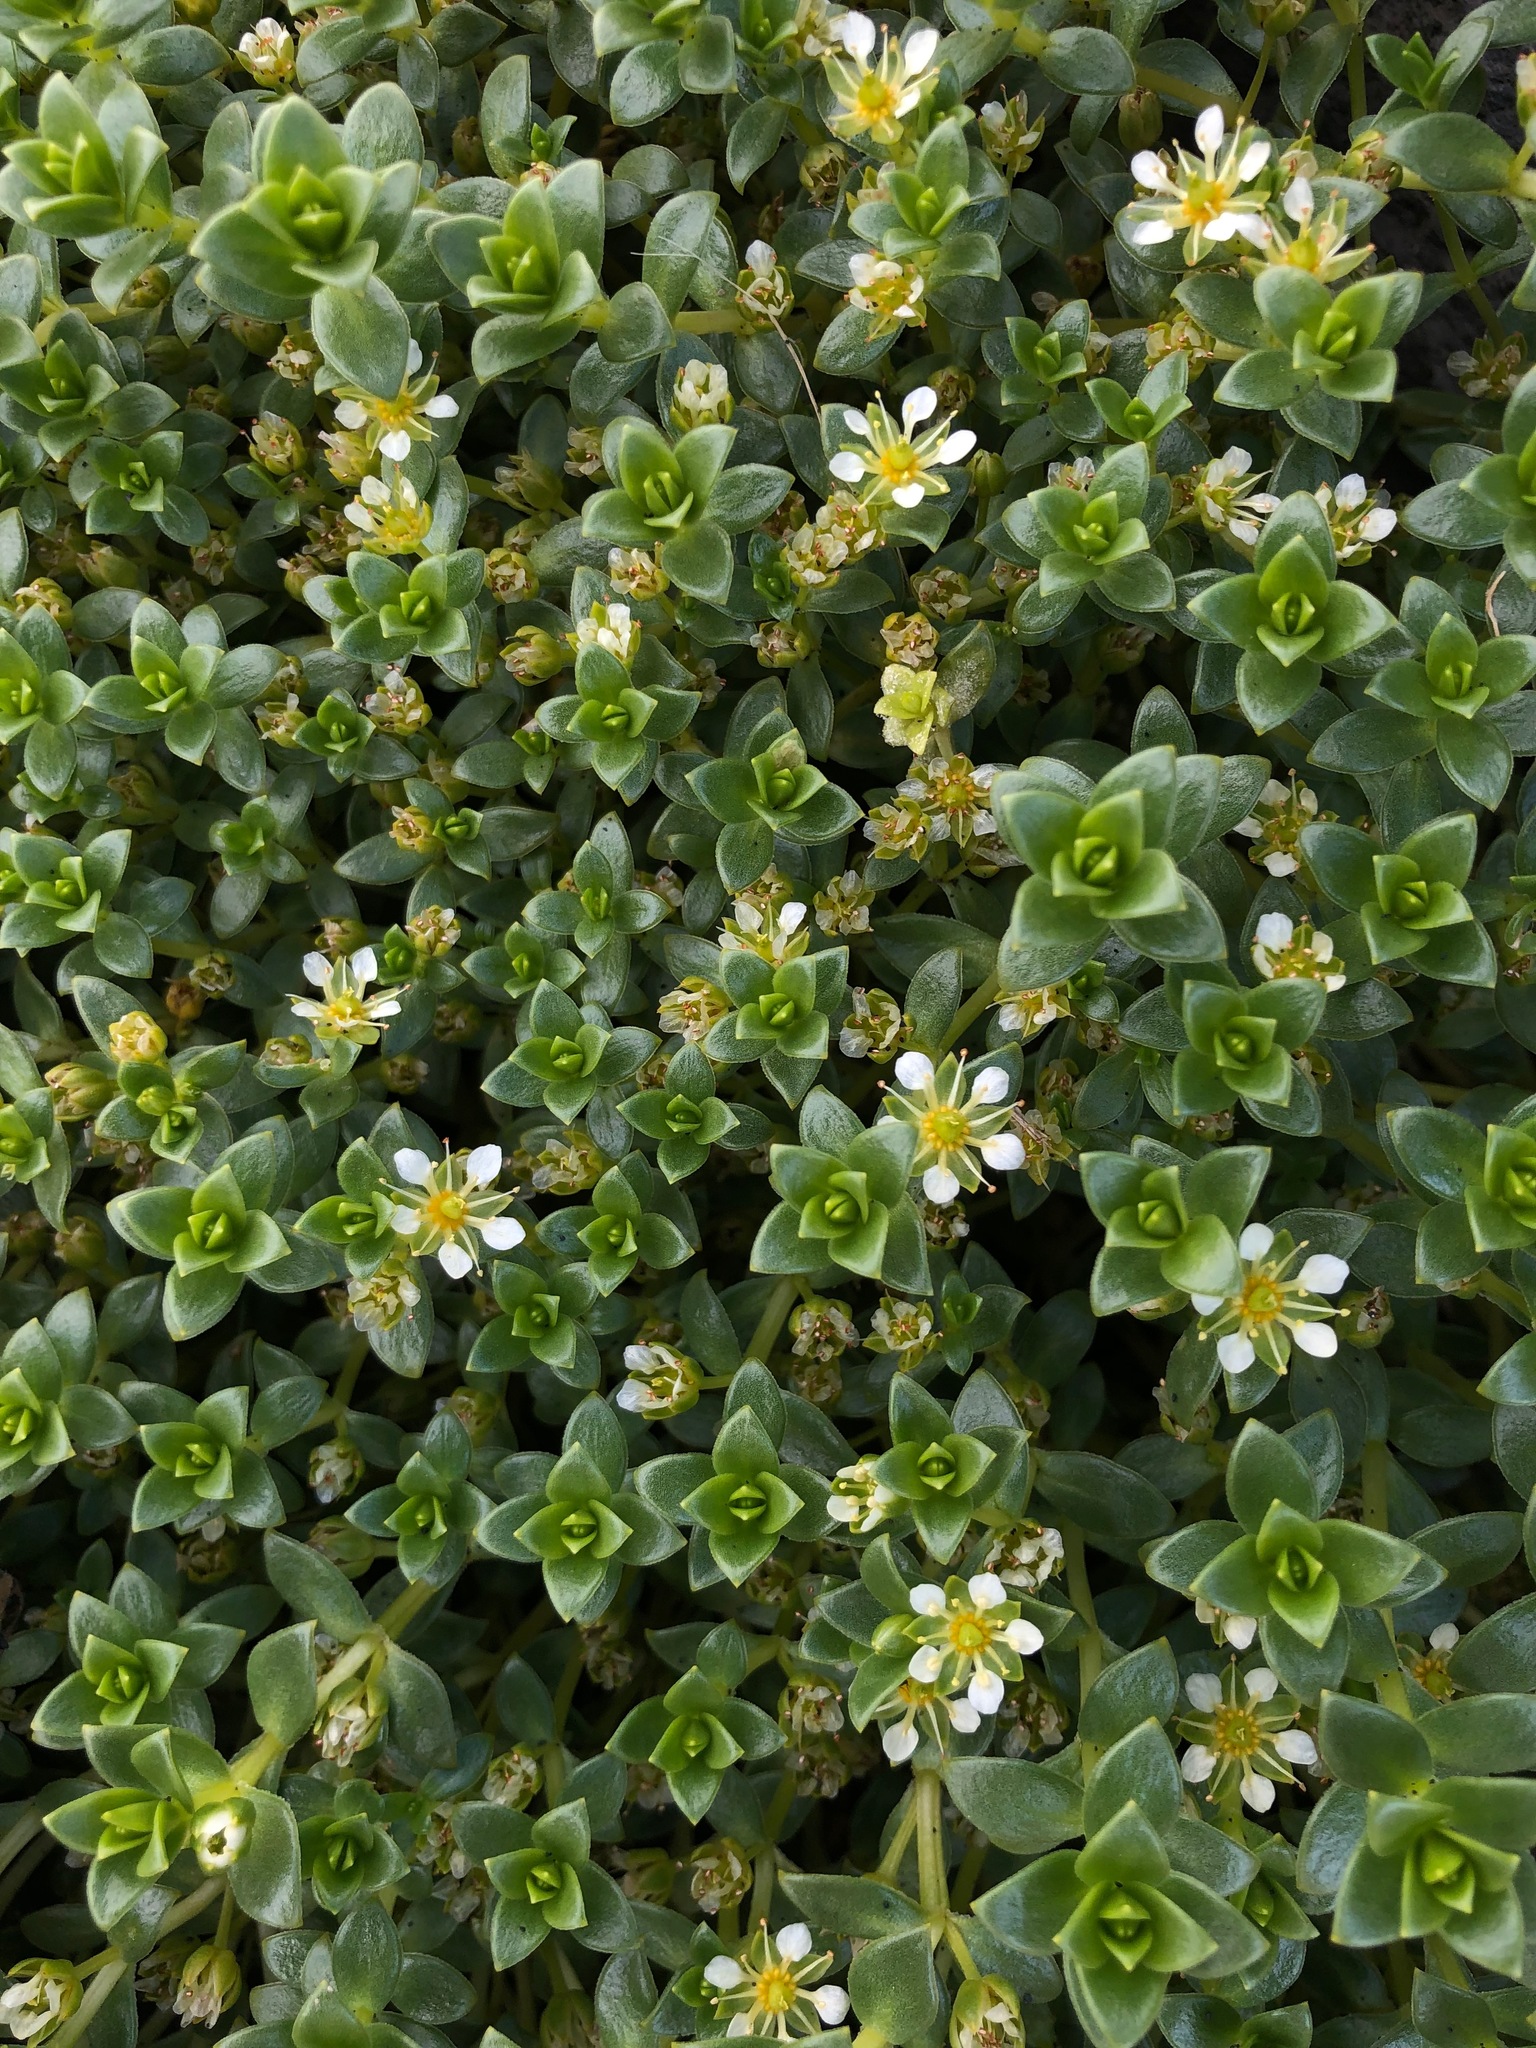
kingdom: Plantae
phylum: Tracheophyta
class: Magnoliopsida
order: Caryophyllales
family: Caryophyllaceae
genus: Honckenya
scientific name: Honckenya peploides
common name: Sea sandwort
